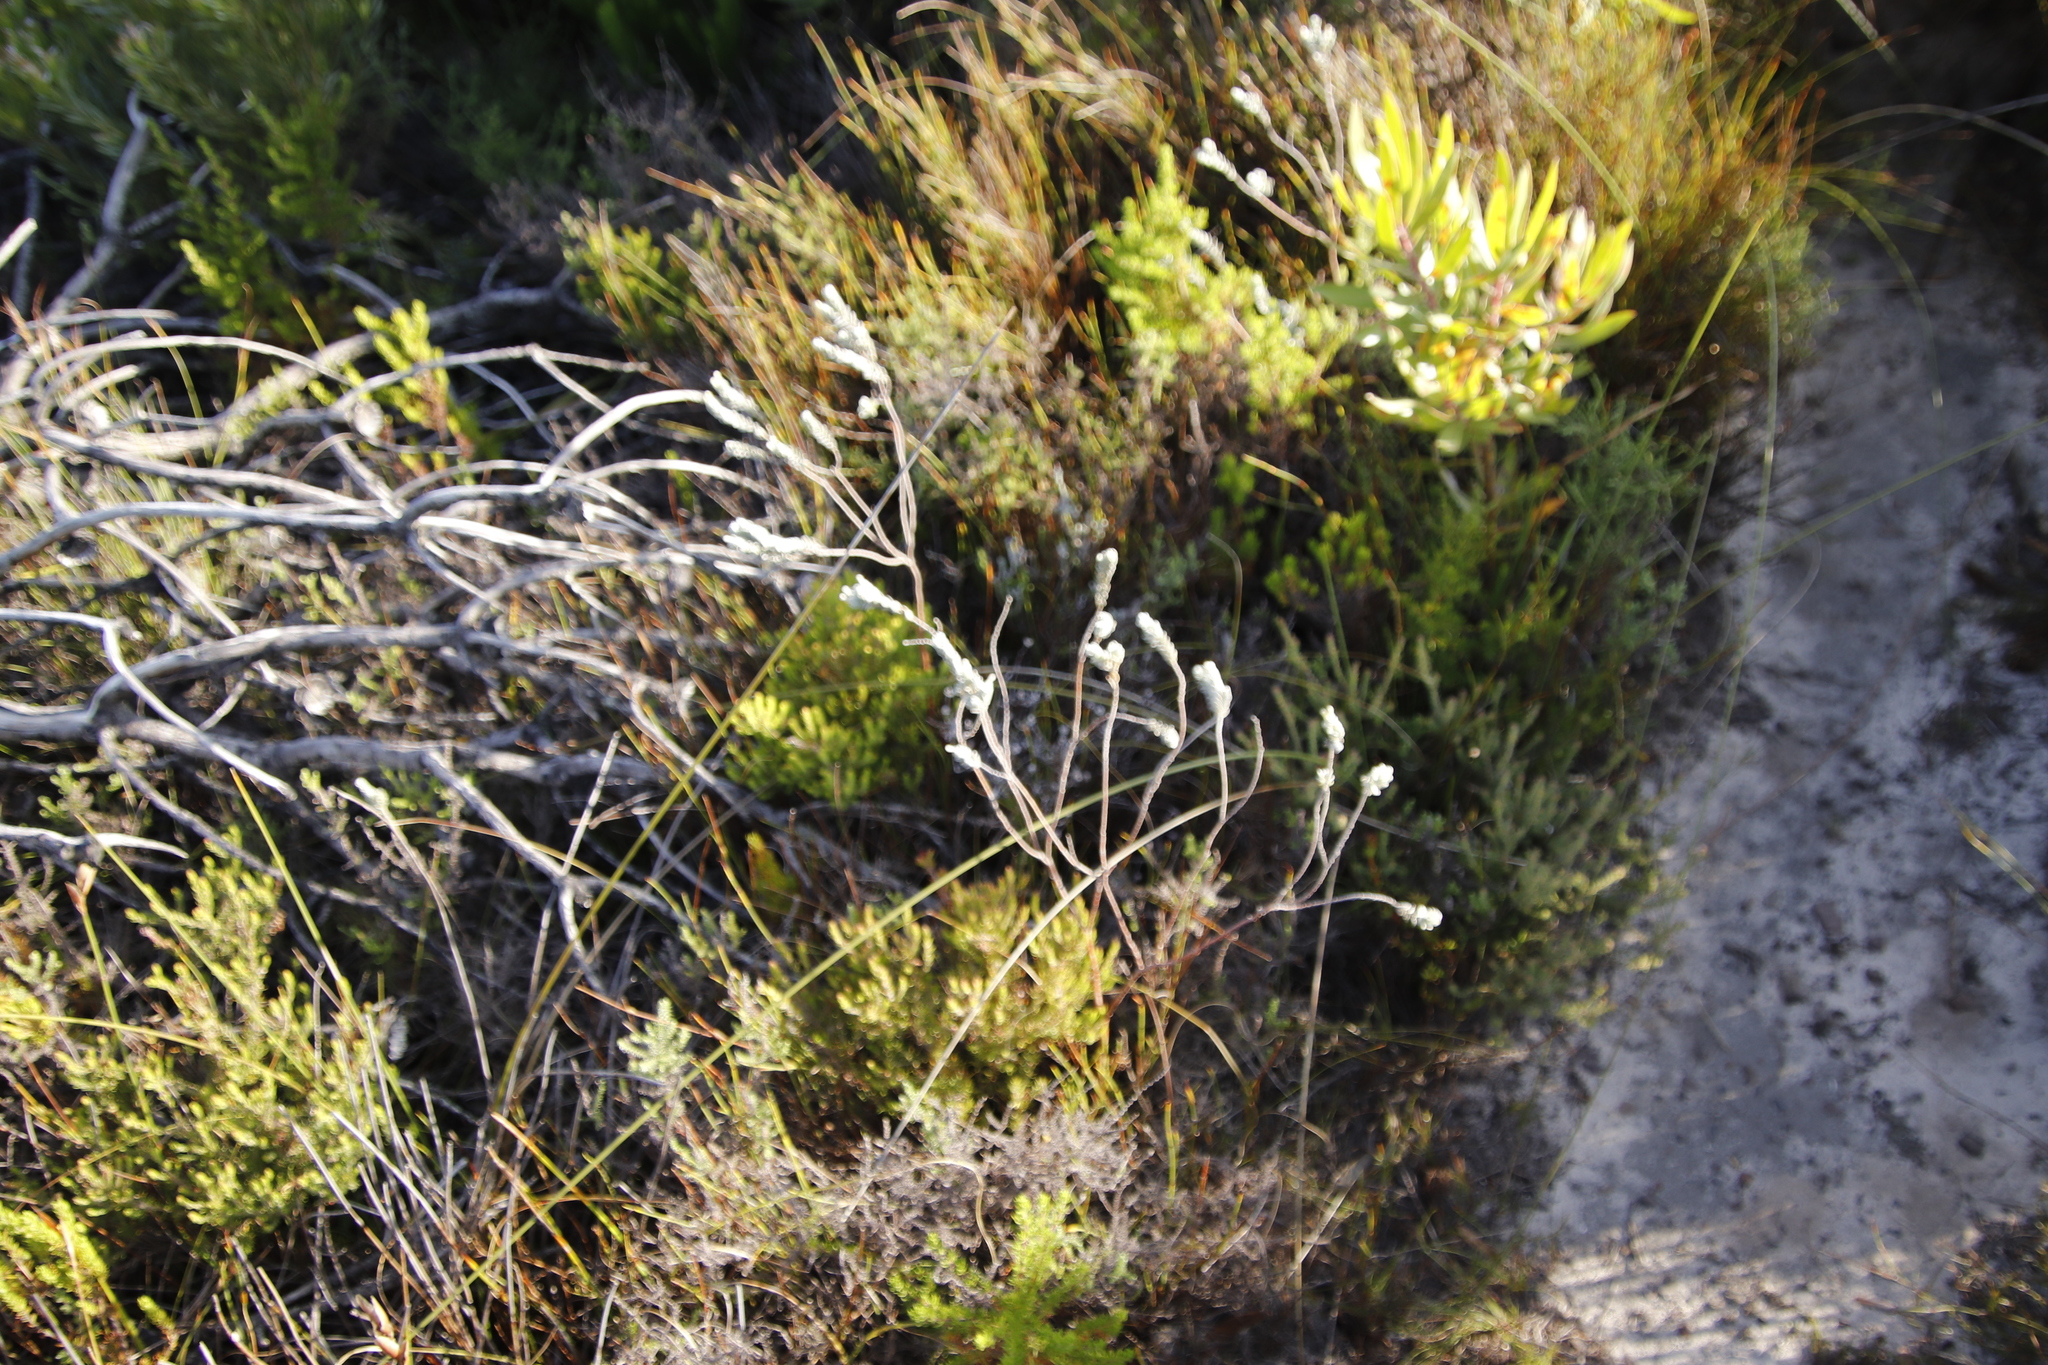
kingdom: Plantae
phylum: Tracheophyta
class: Magnoliopsida
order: Malvales
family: Thymelaeaceae
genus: Gnidia
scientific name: Gnidia imbricata
